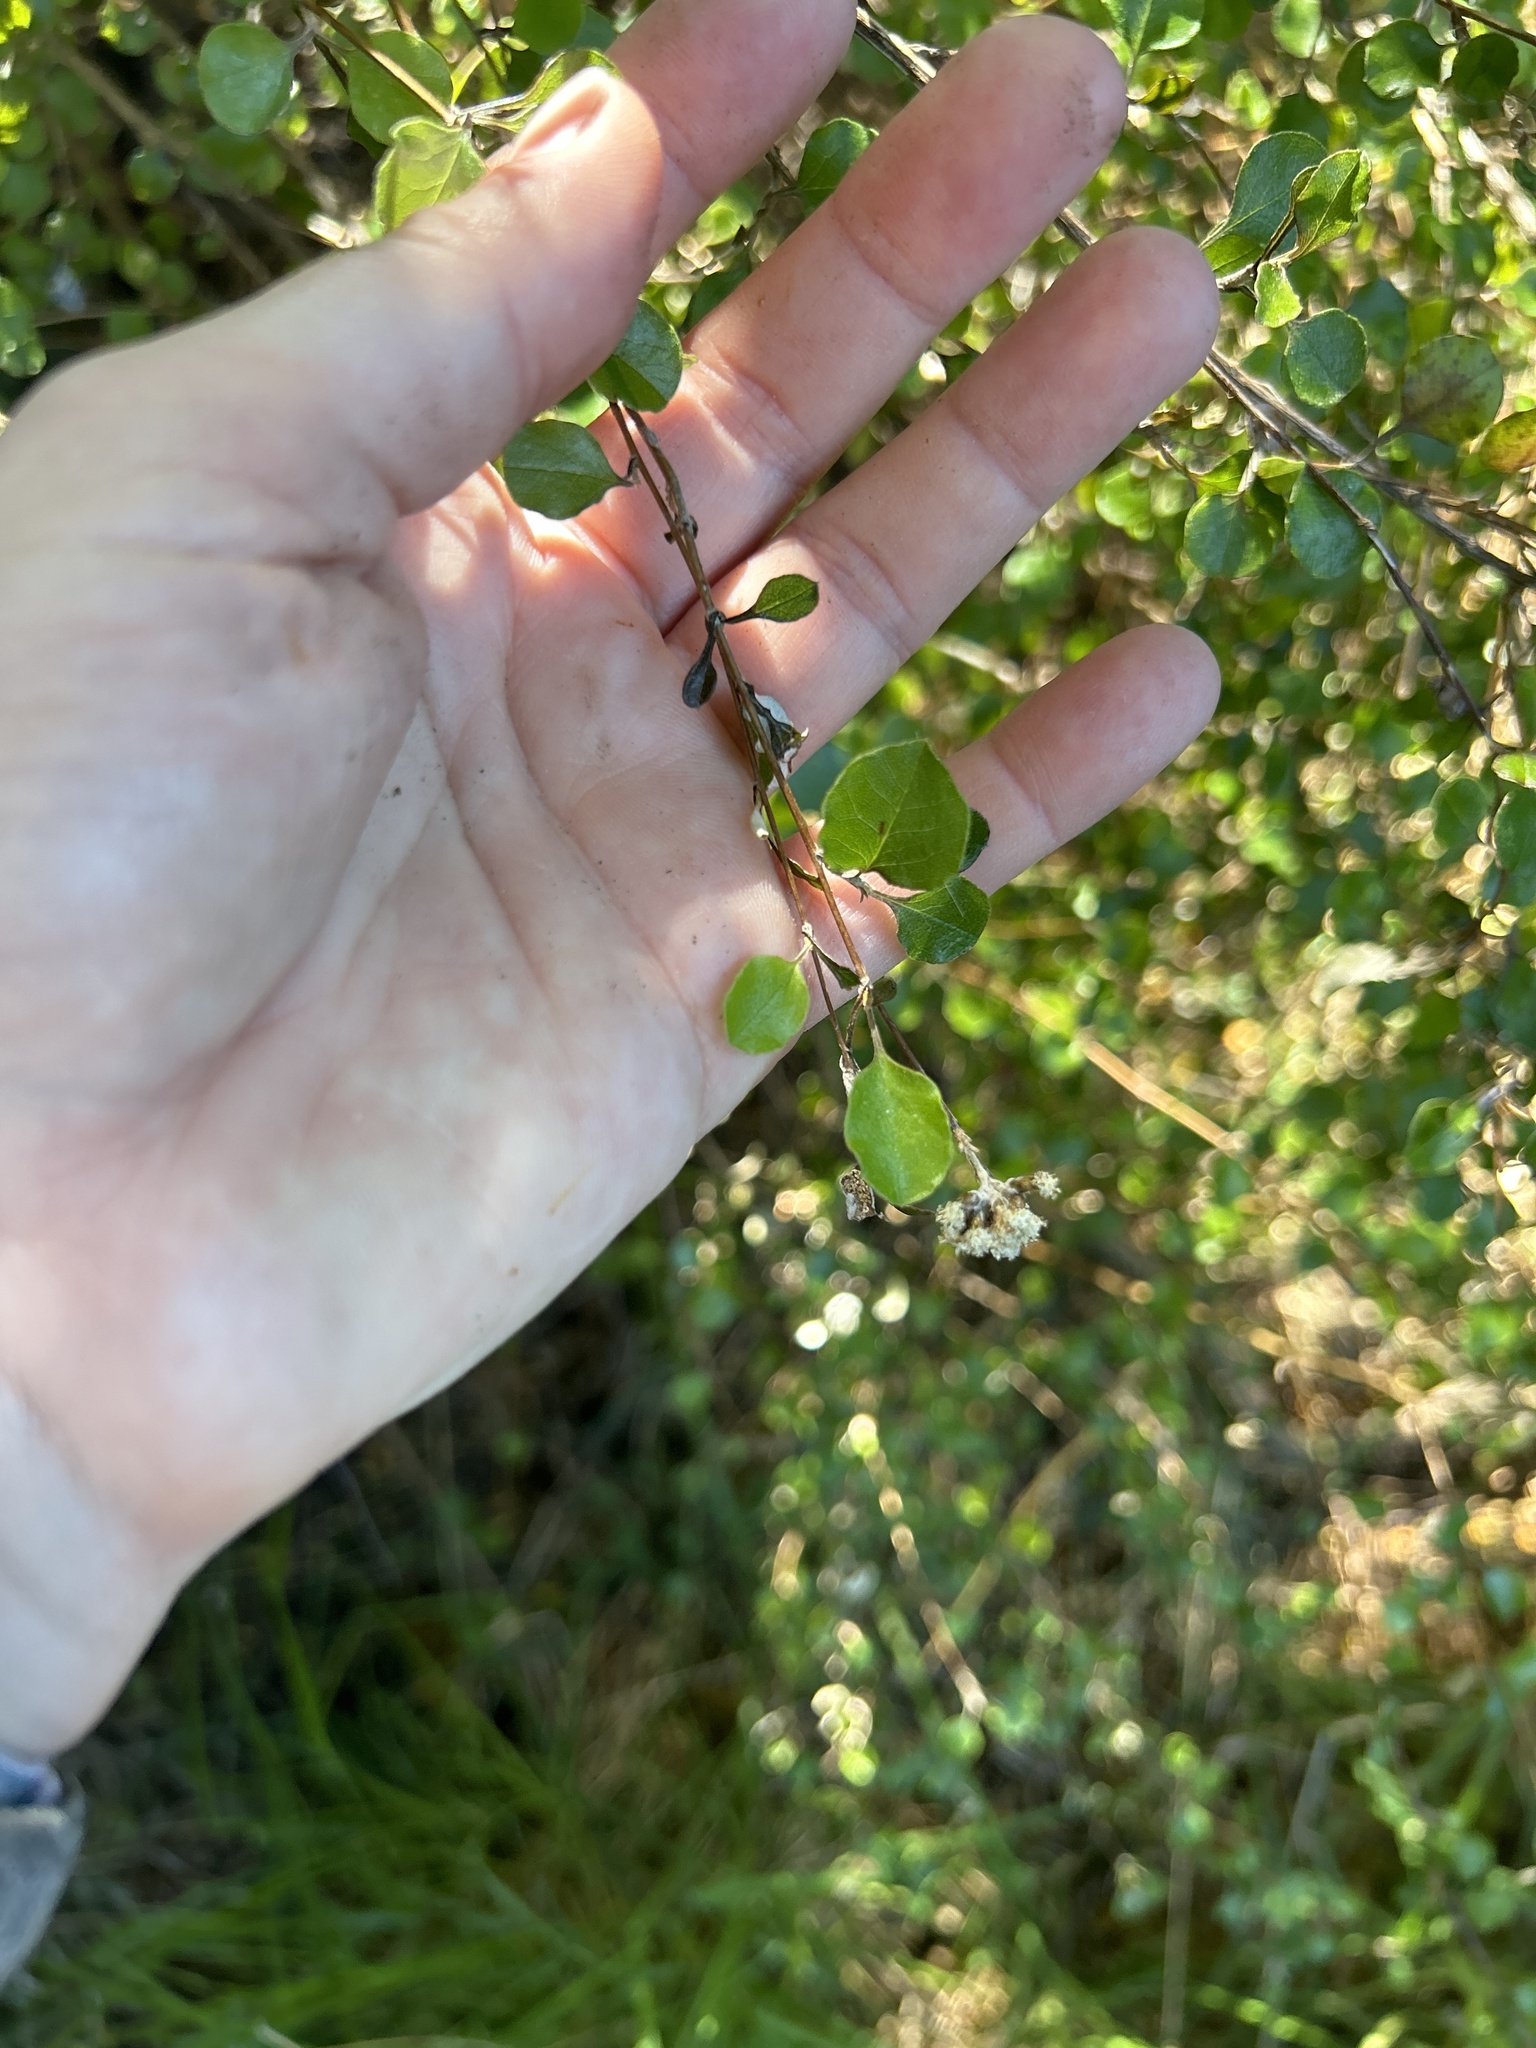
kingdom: Plantae
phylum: Tracheophyta
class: Magnoliopsida
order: Asterales
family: Asteraceae
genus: Ozothamnus
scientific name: Ozothamnus glomeratus
